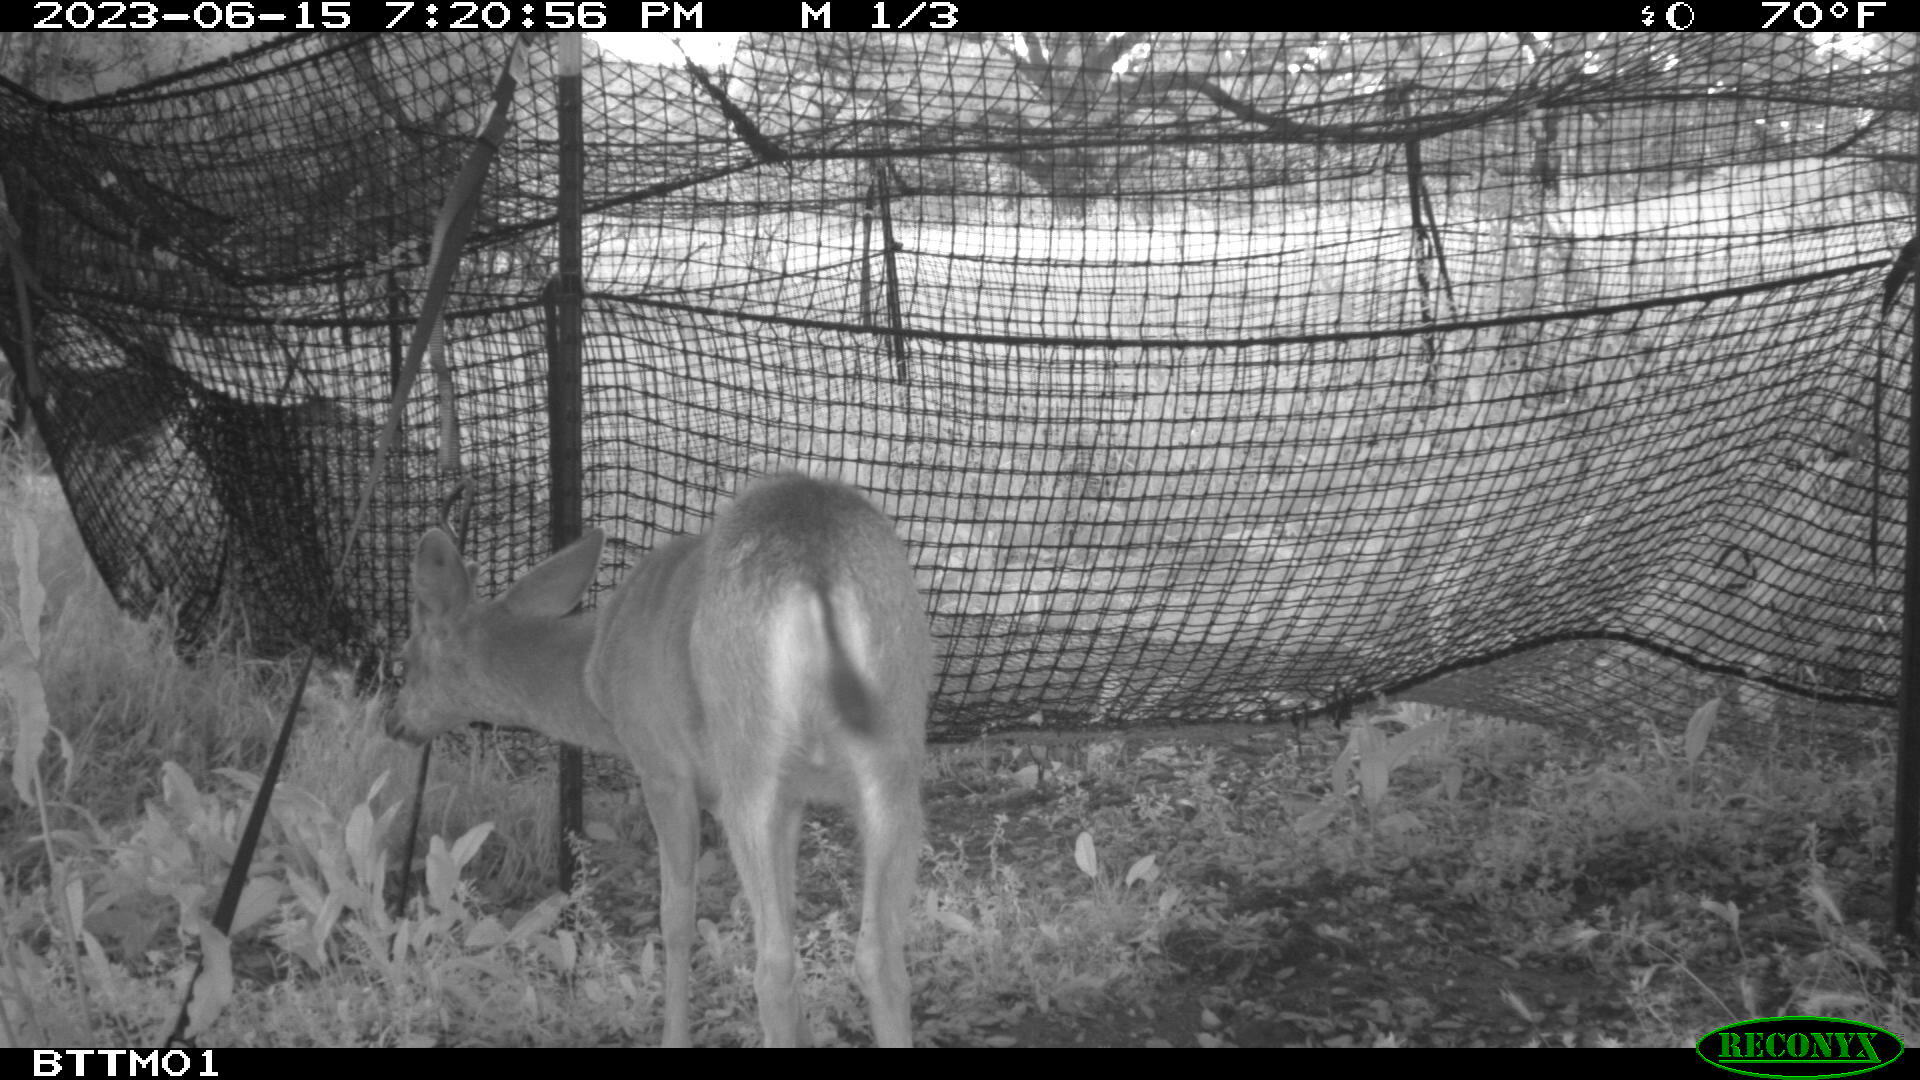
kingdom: Animalia
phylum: Chordata
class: Mammalia
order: Artiodactyla
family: Cervidae
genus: Odocoileus
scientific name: Odocoileus hemionus
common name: Mule deer
